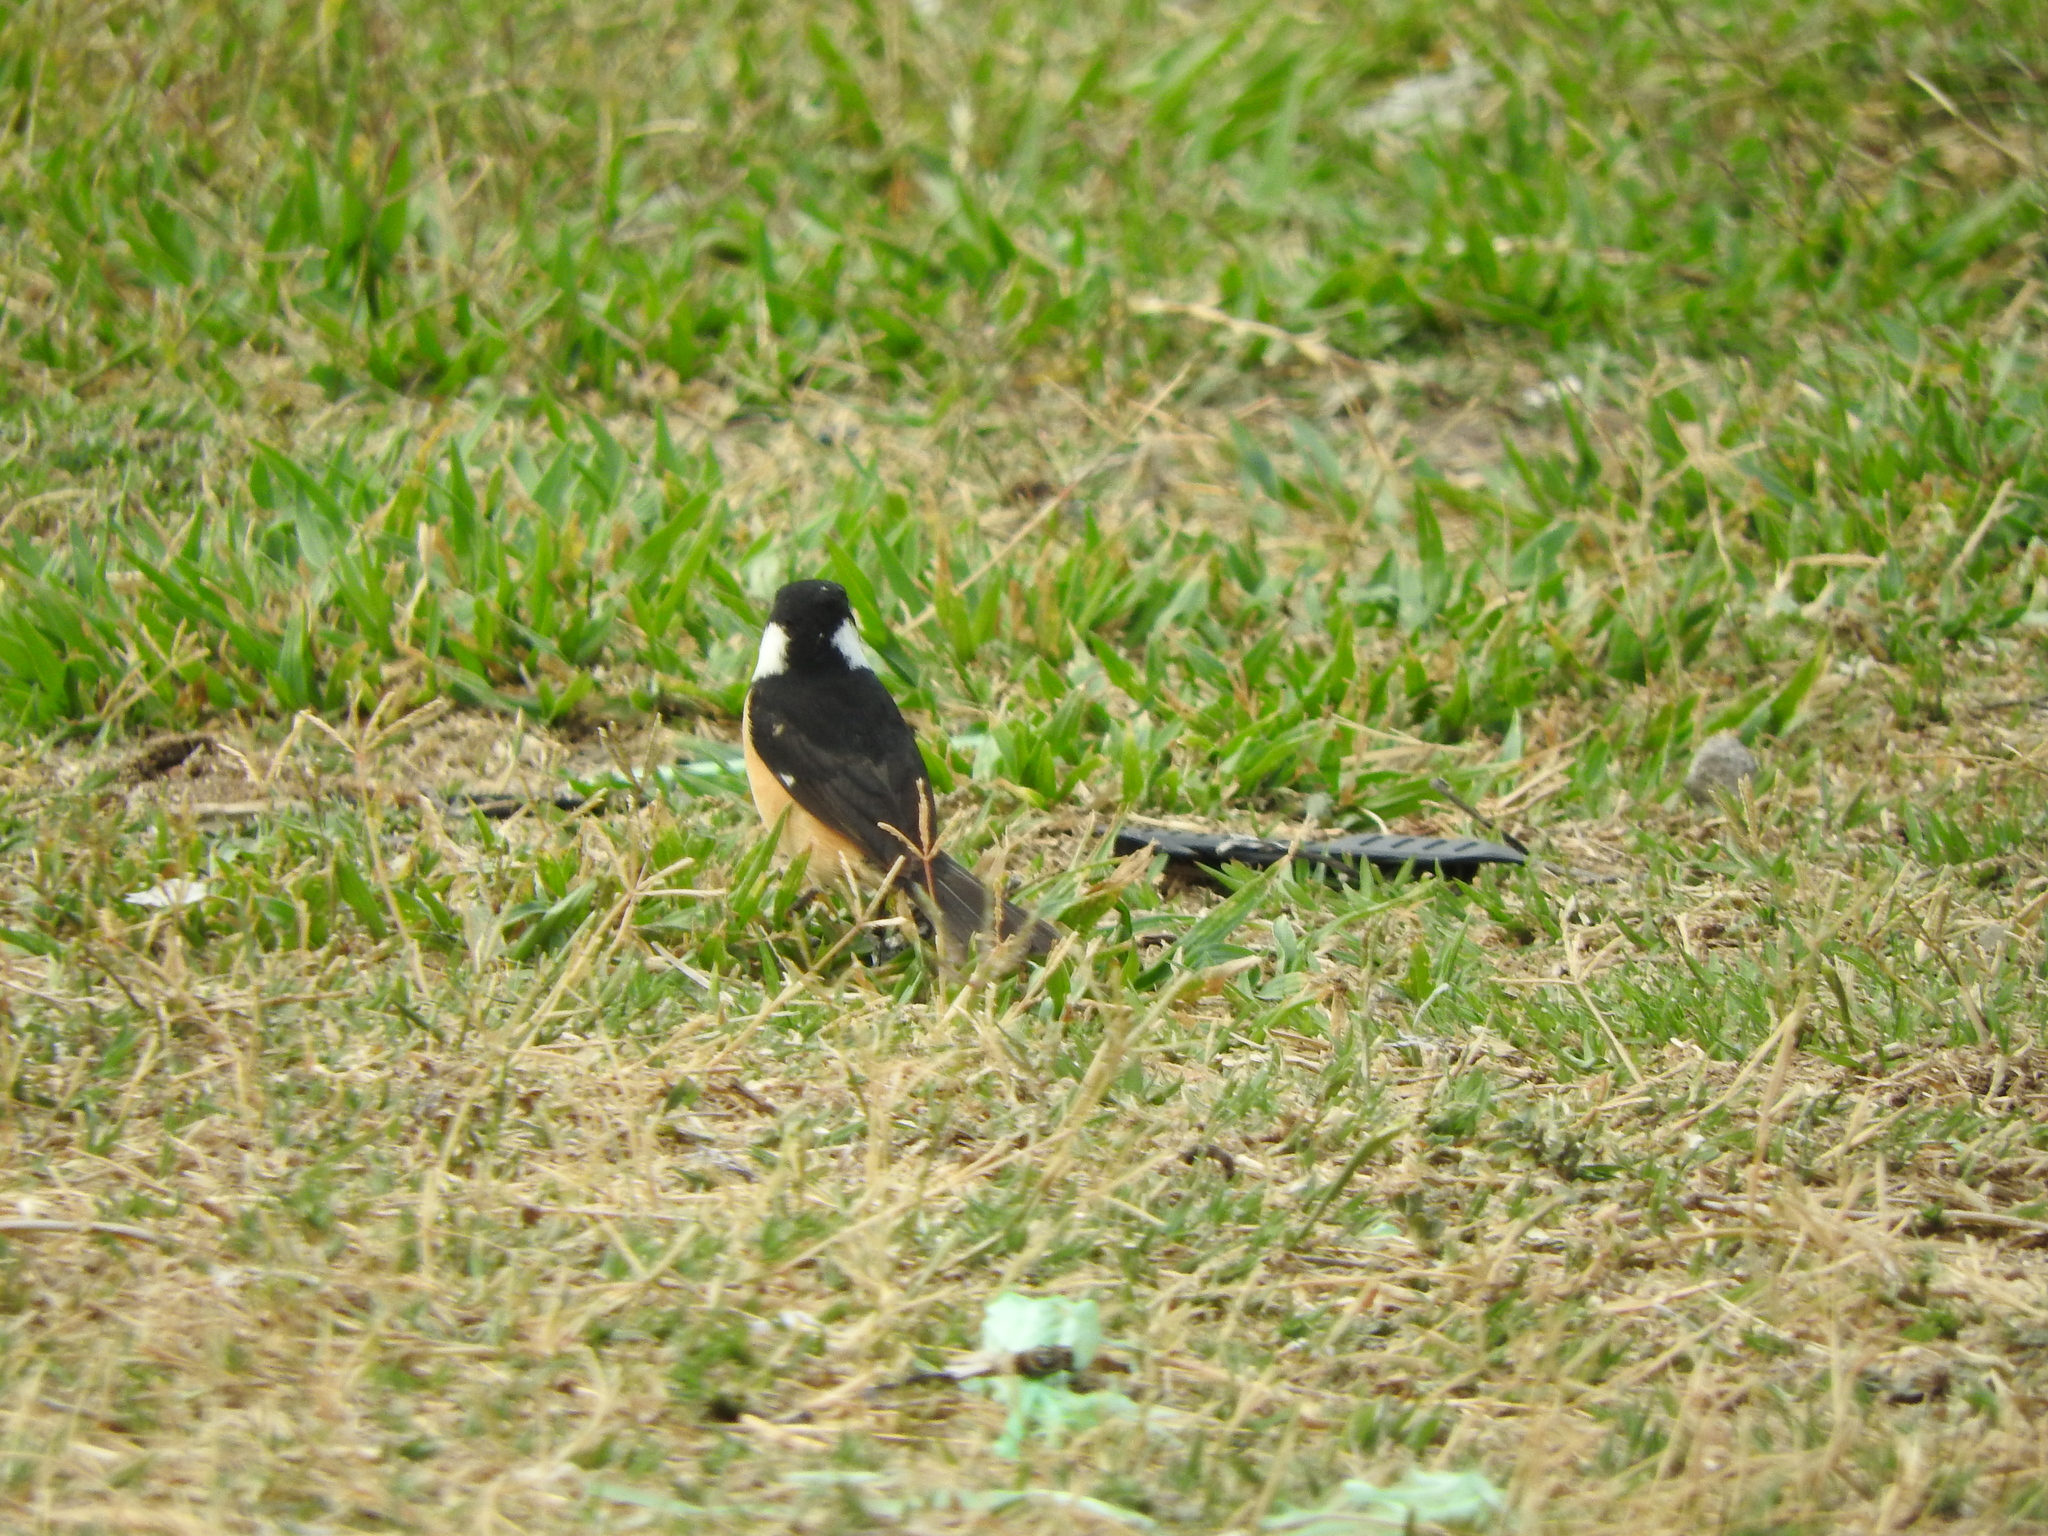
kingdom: Animalia
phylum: Chordata
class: Aves
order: Passeriformes
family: Thraupidae
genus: Sporophila
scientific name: Sporophila torqueola
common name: White-collared seedeater
